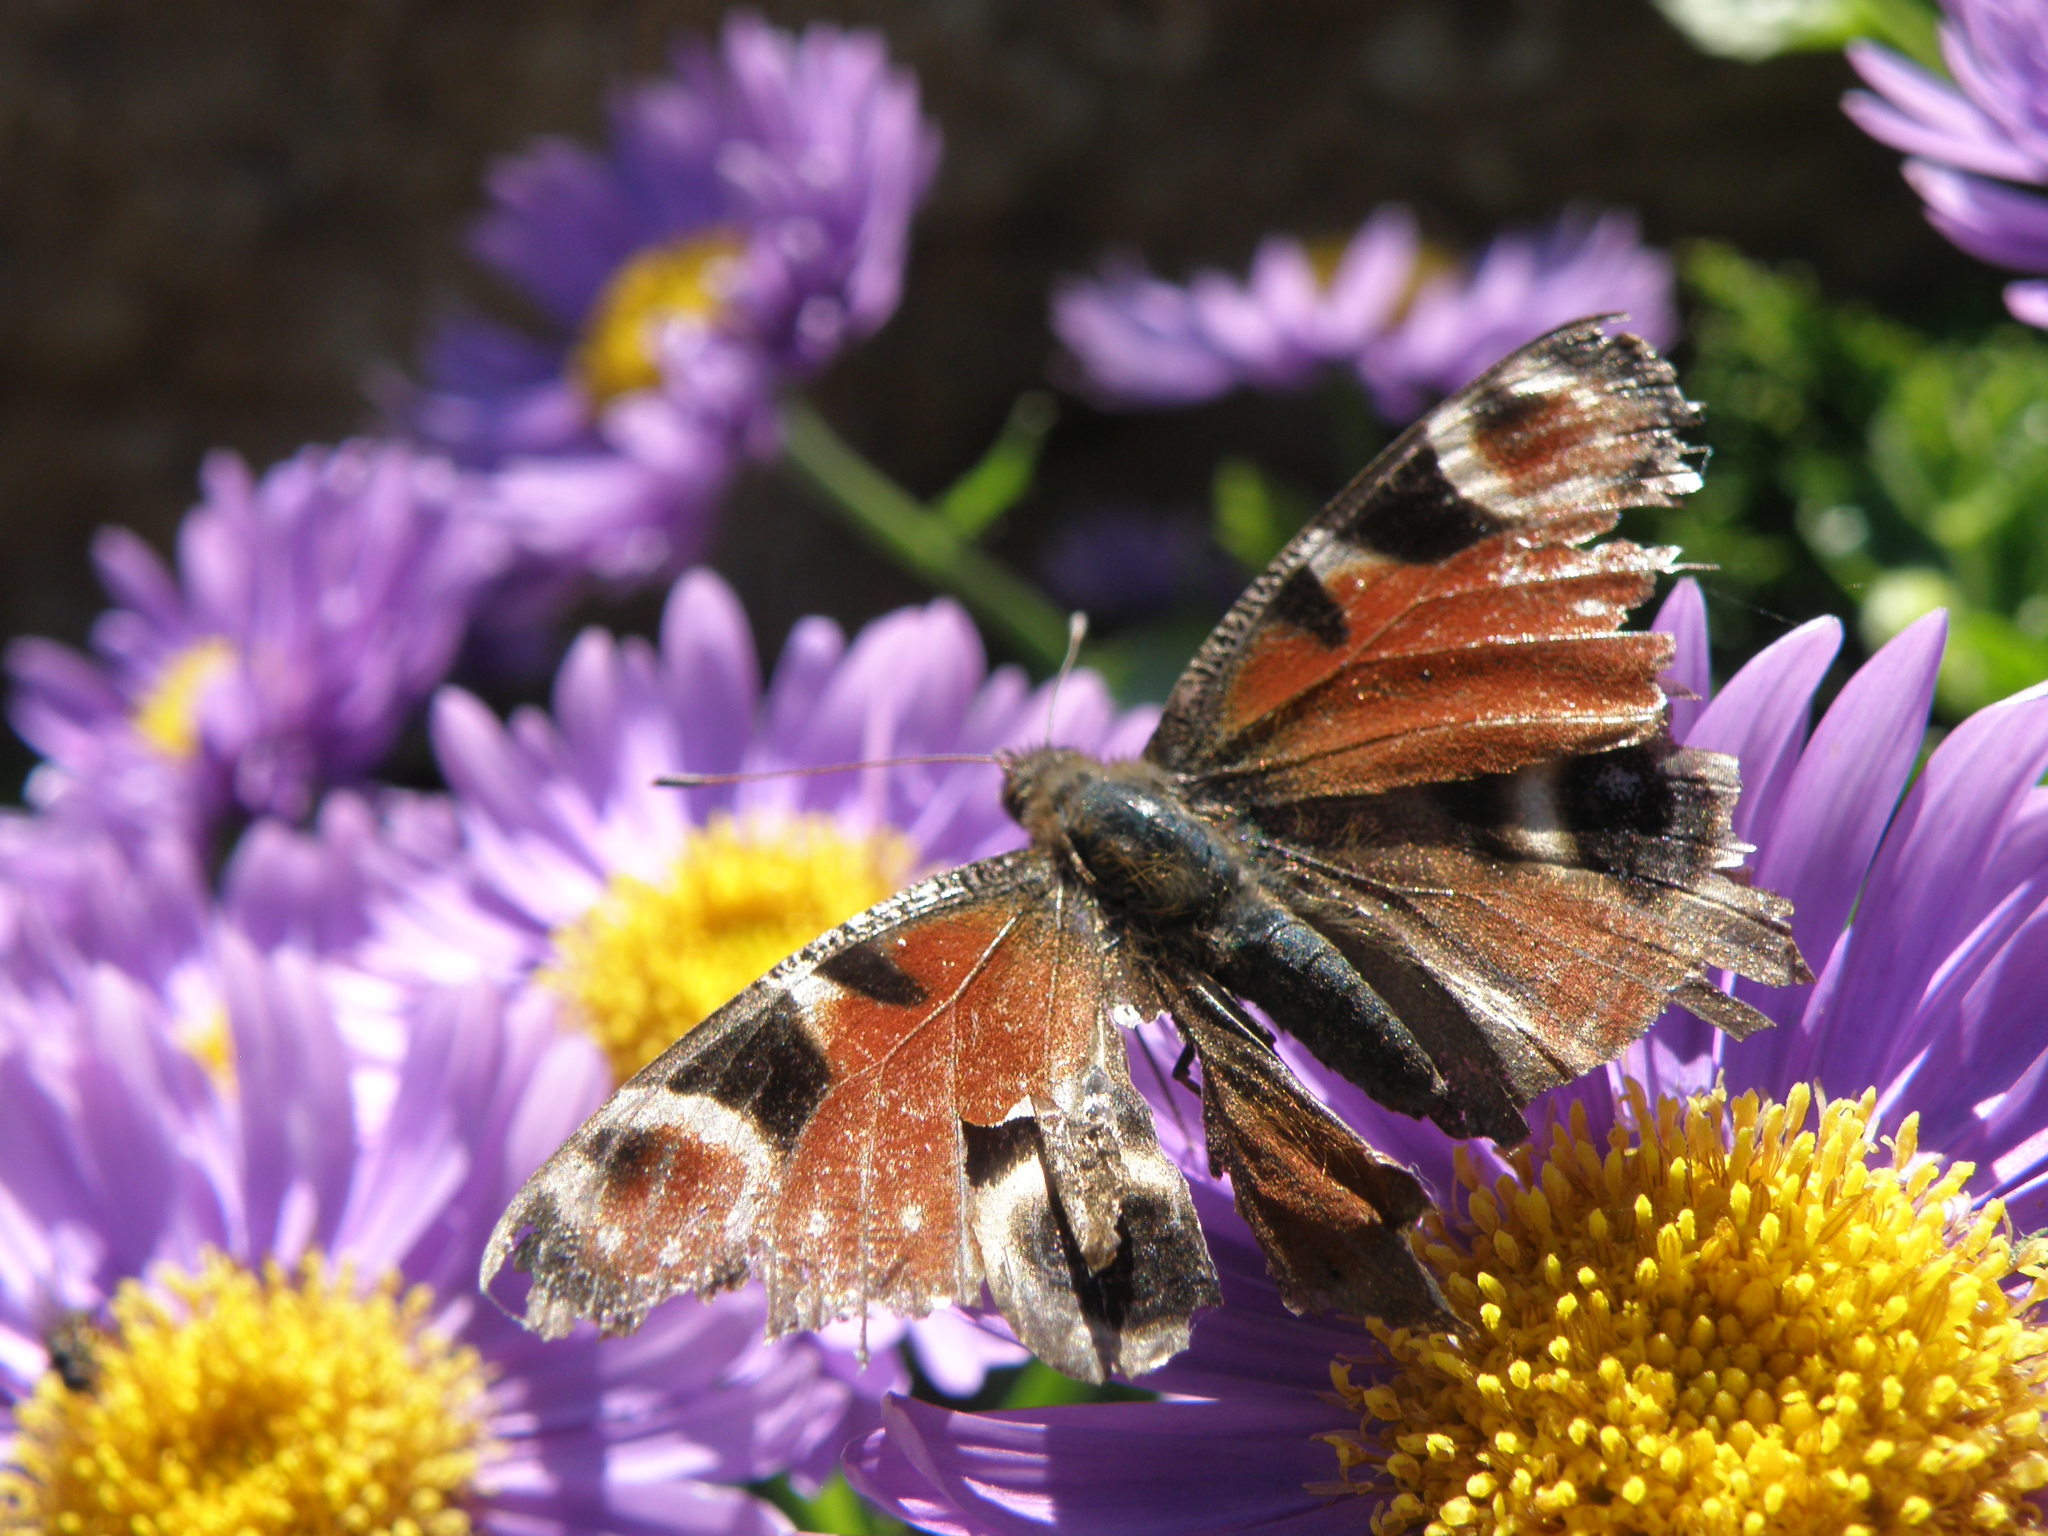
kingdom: Animalia
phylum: Arthropoda
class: Insecta
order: Lepidoptera
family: Nymphalidae
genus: Aglais
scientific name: Aglais io
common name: Peacock
